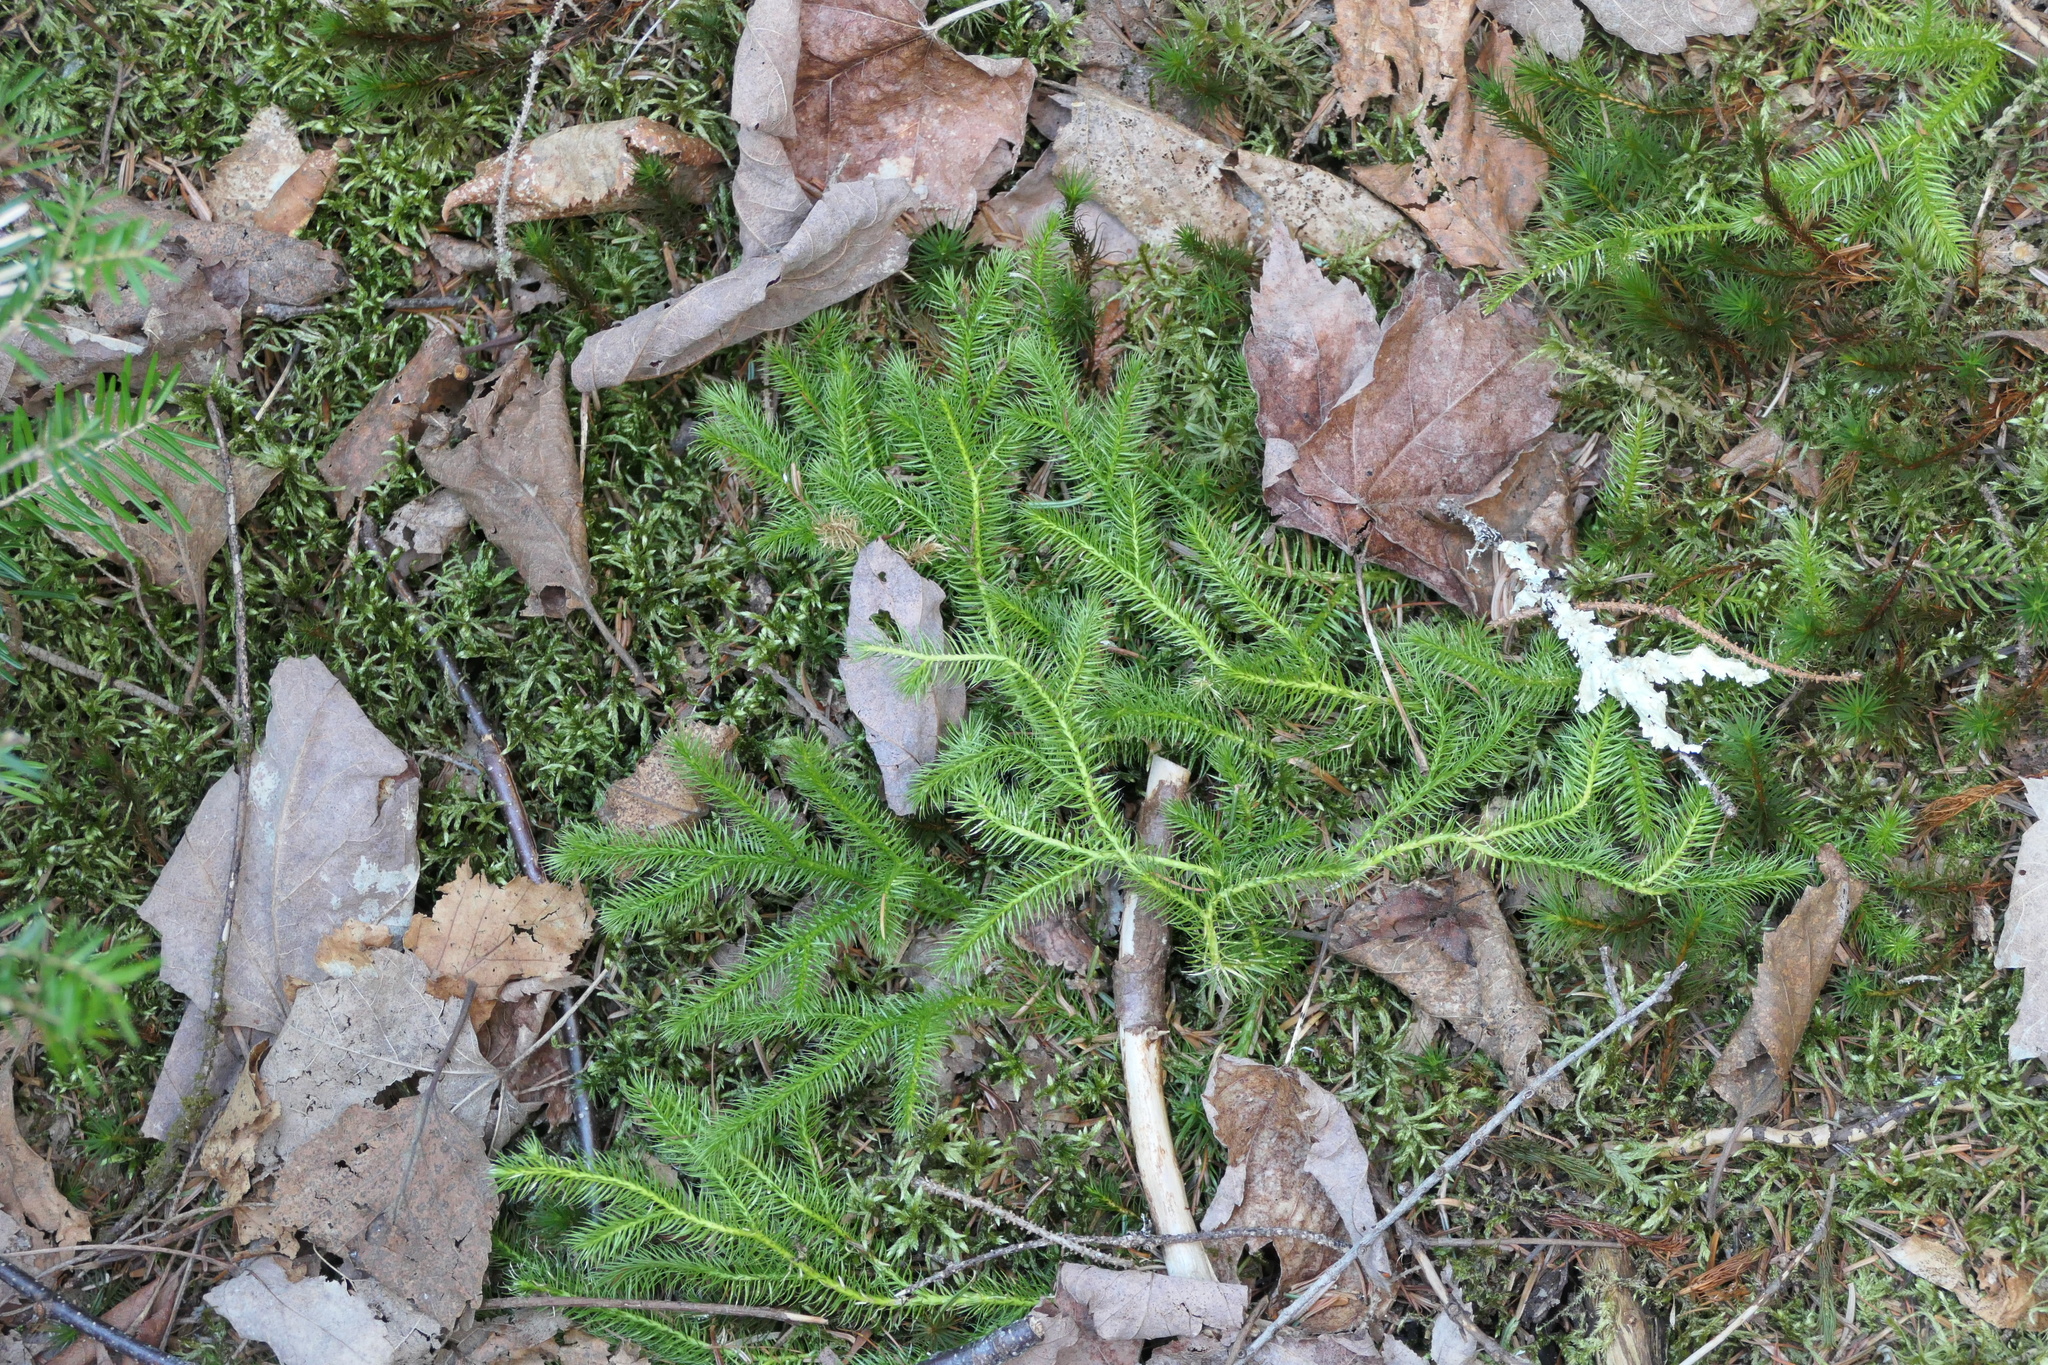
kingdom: Plantae
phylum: Tracheophyta
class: Lycopodiopsida
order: Lycopodiales
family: Lycopodiaceae
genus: Lycopodium
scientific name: Lycopodium clavatum
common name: Stag's-horn clubmoss
